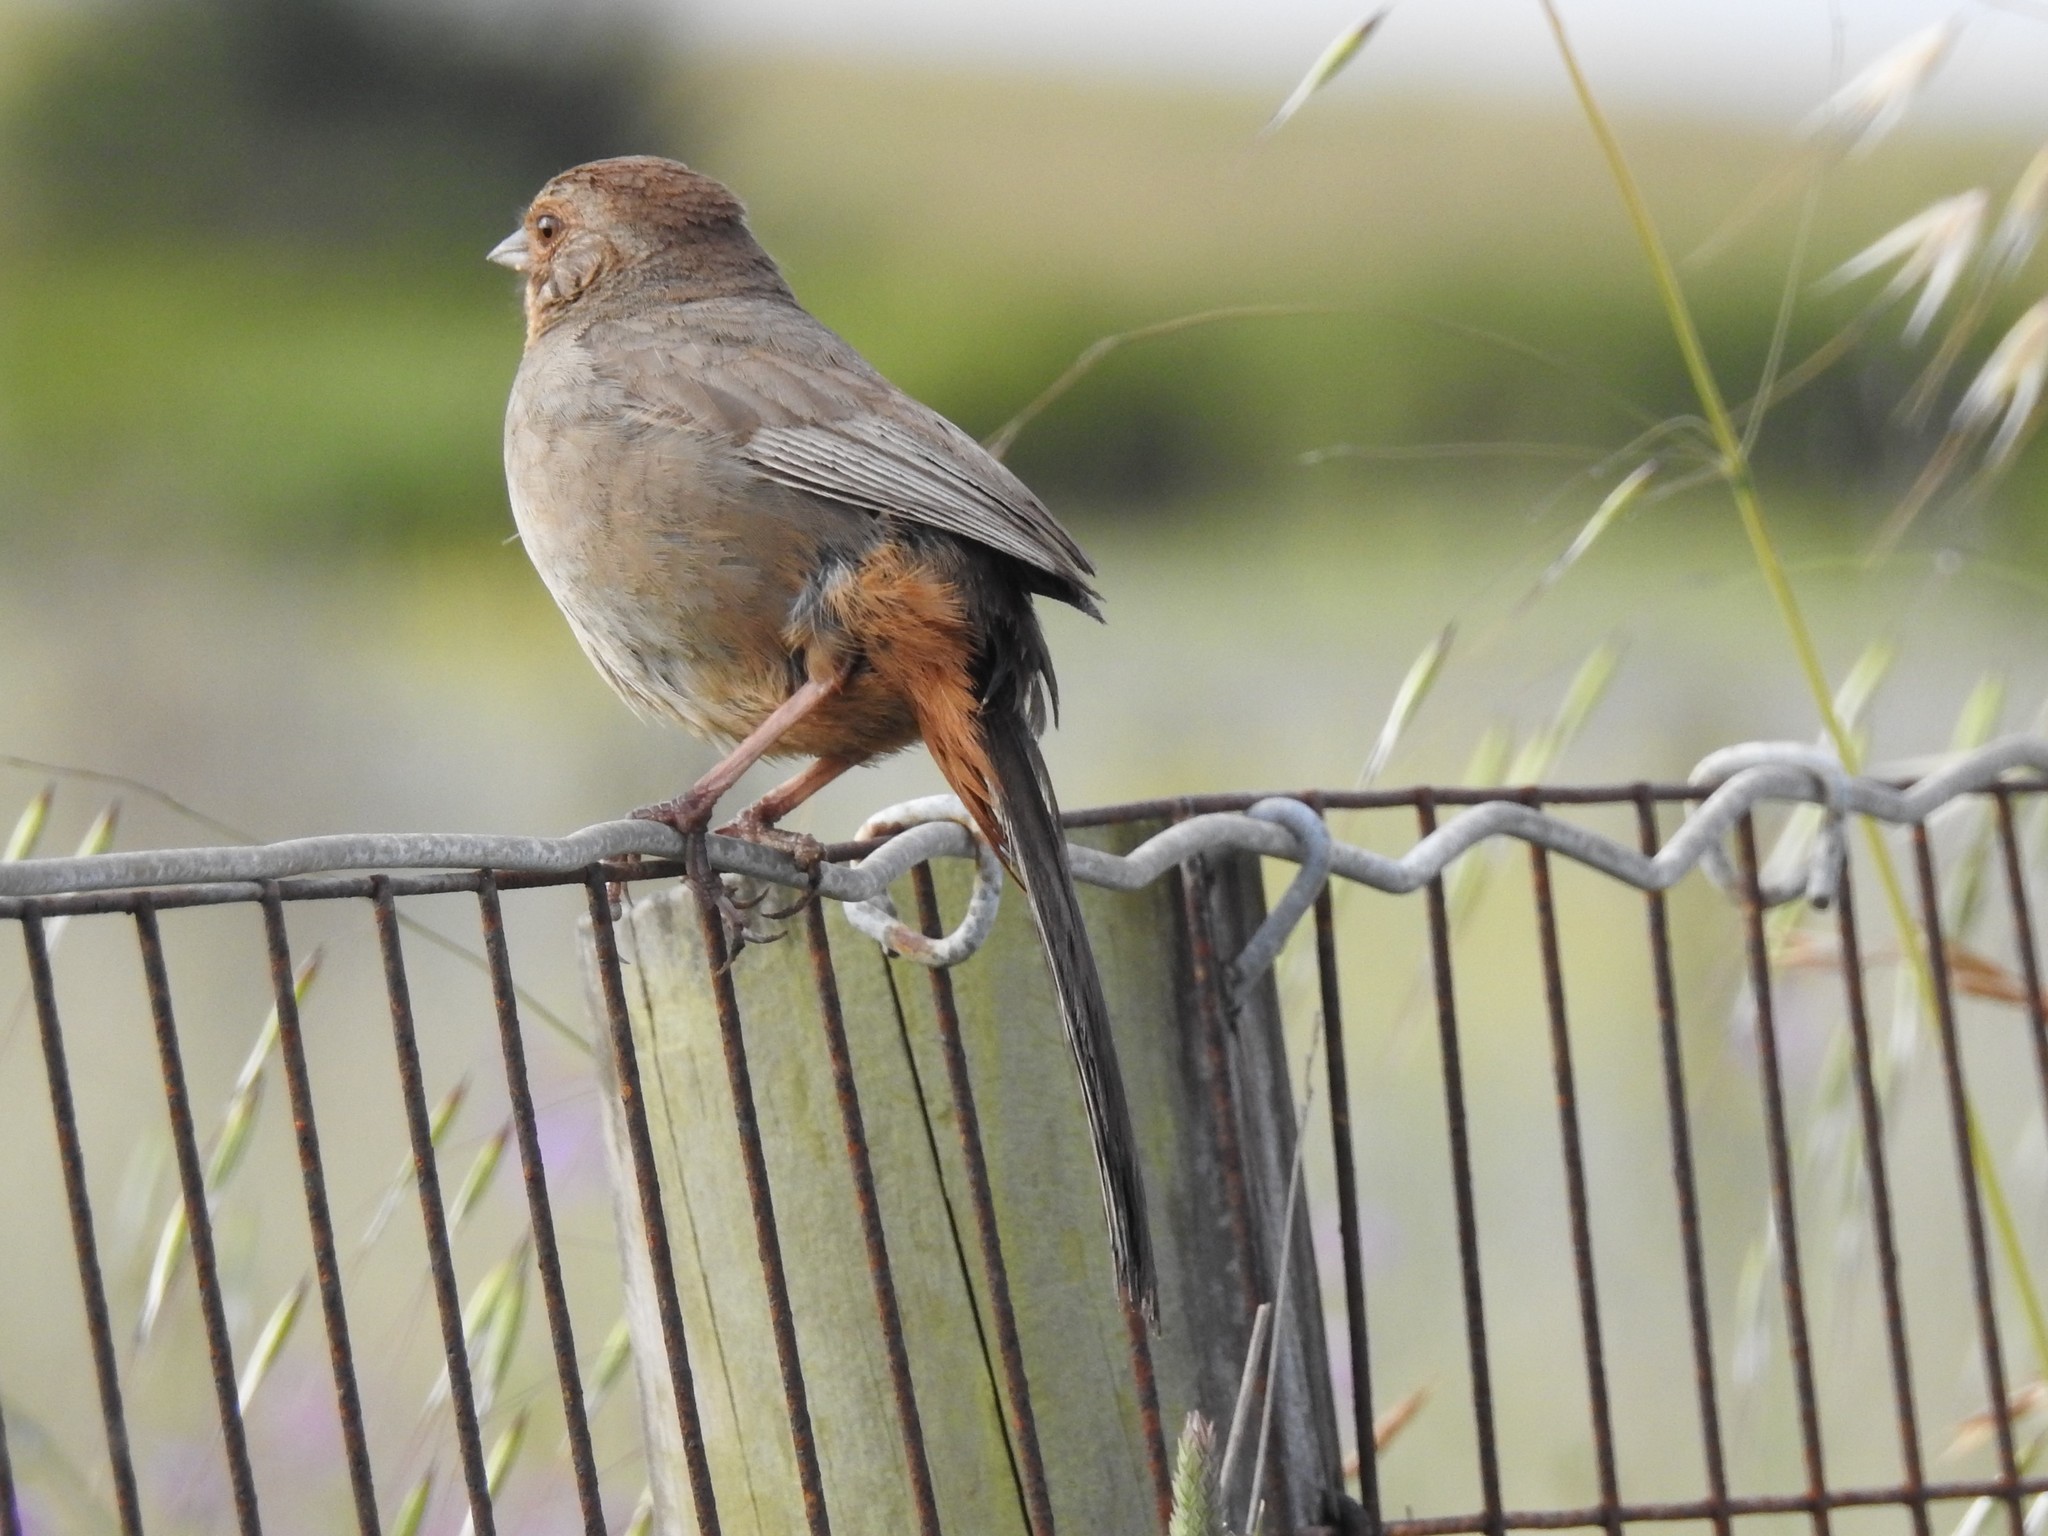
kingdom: Animalia
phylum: Chordata
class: Aves
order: Passeriformes
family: Passerellidae
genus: Melozone
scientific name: Melozone crissalis
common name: California towhee
